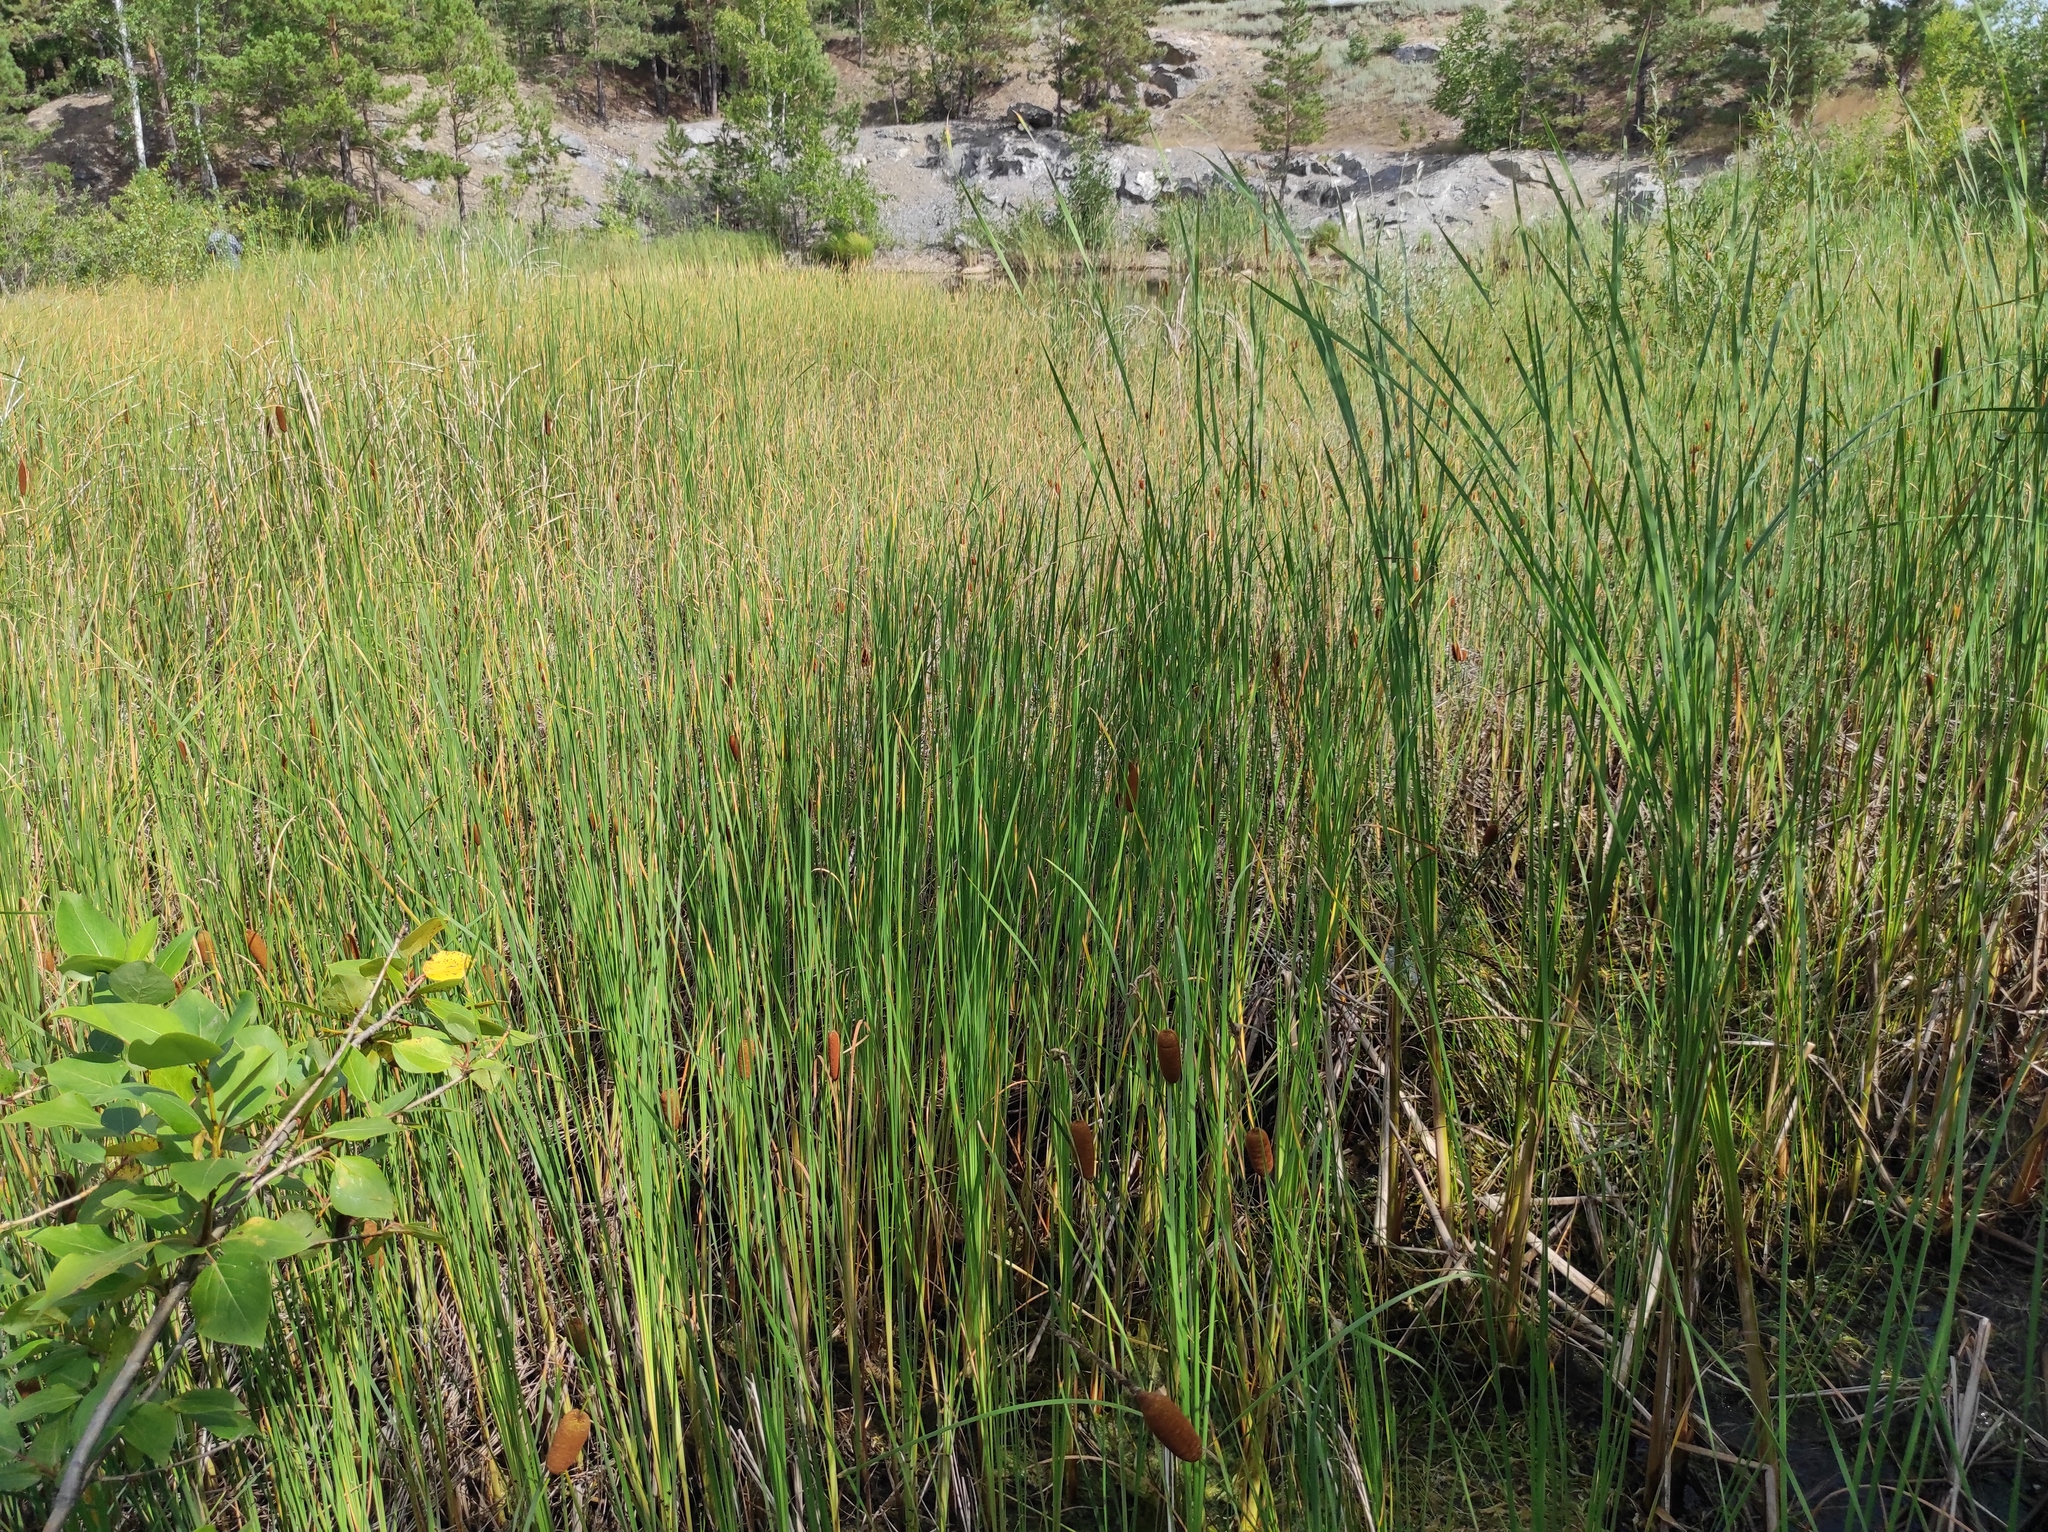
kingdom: Plantae
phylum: Tracheophyta
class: Liliopsida
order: Poales
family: Typhaceae
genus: Typha
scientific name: Typha laxmannii
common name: Laxman’s bulrush
